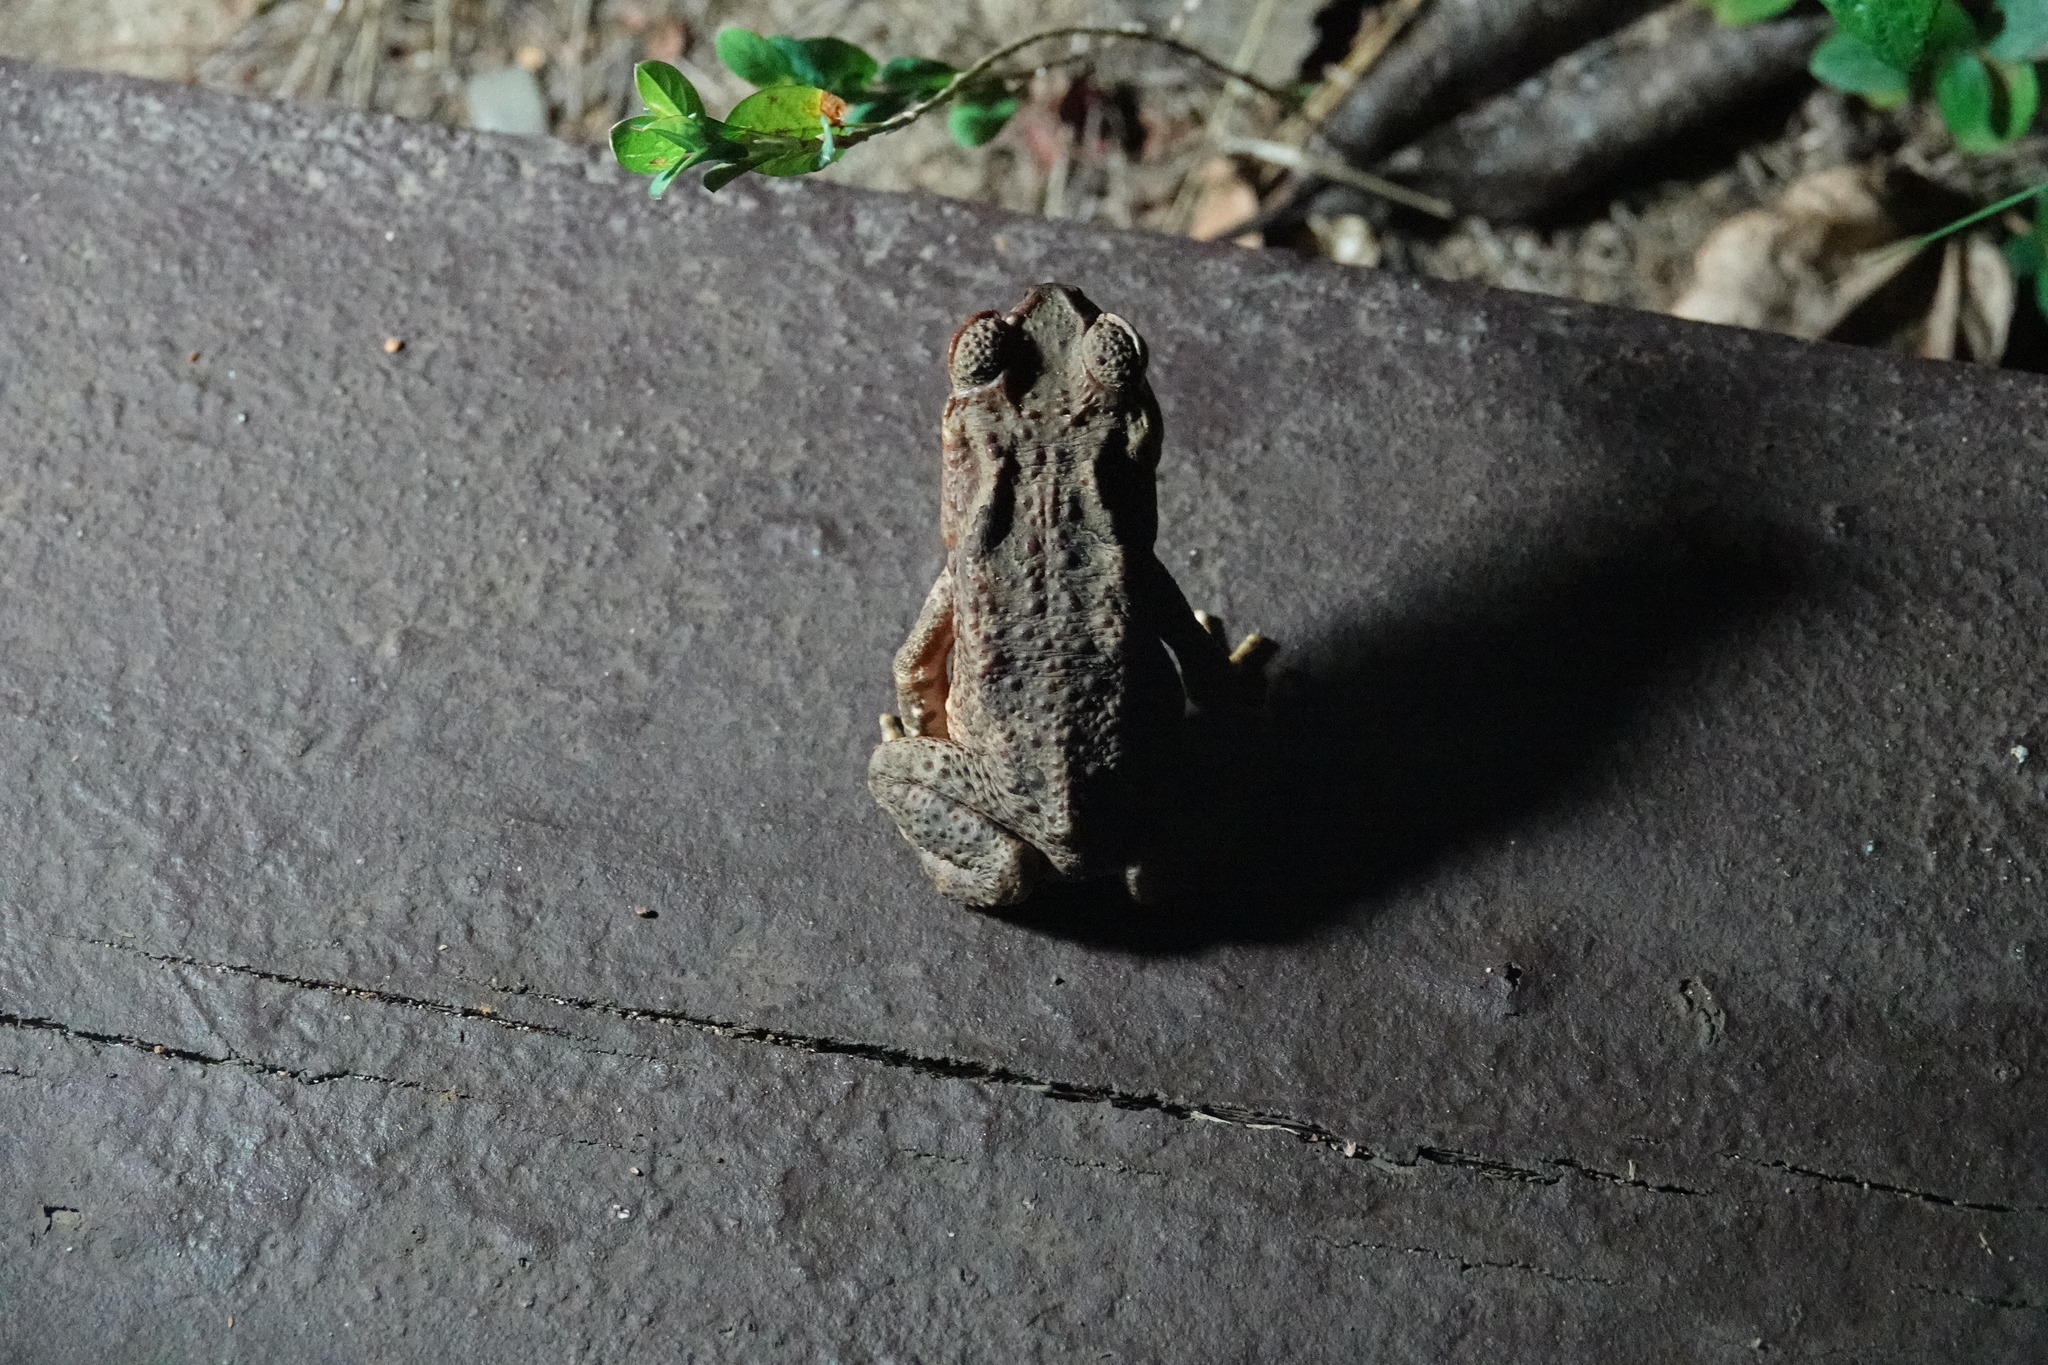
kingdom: Animalia
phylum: Chordata
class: Amphibia
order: Anura
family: Bufonidae
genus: Rhinella
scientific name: Rhinella marina
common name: Cane toad
